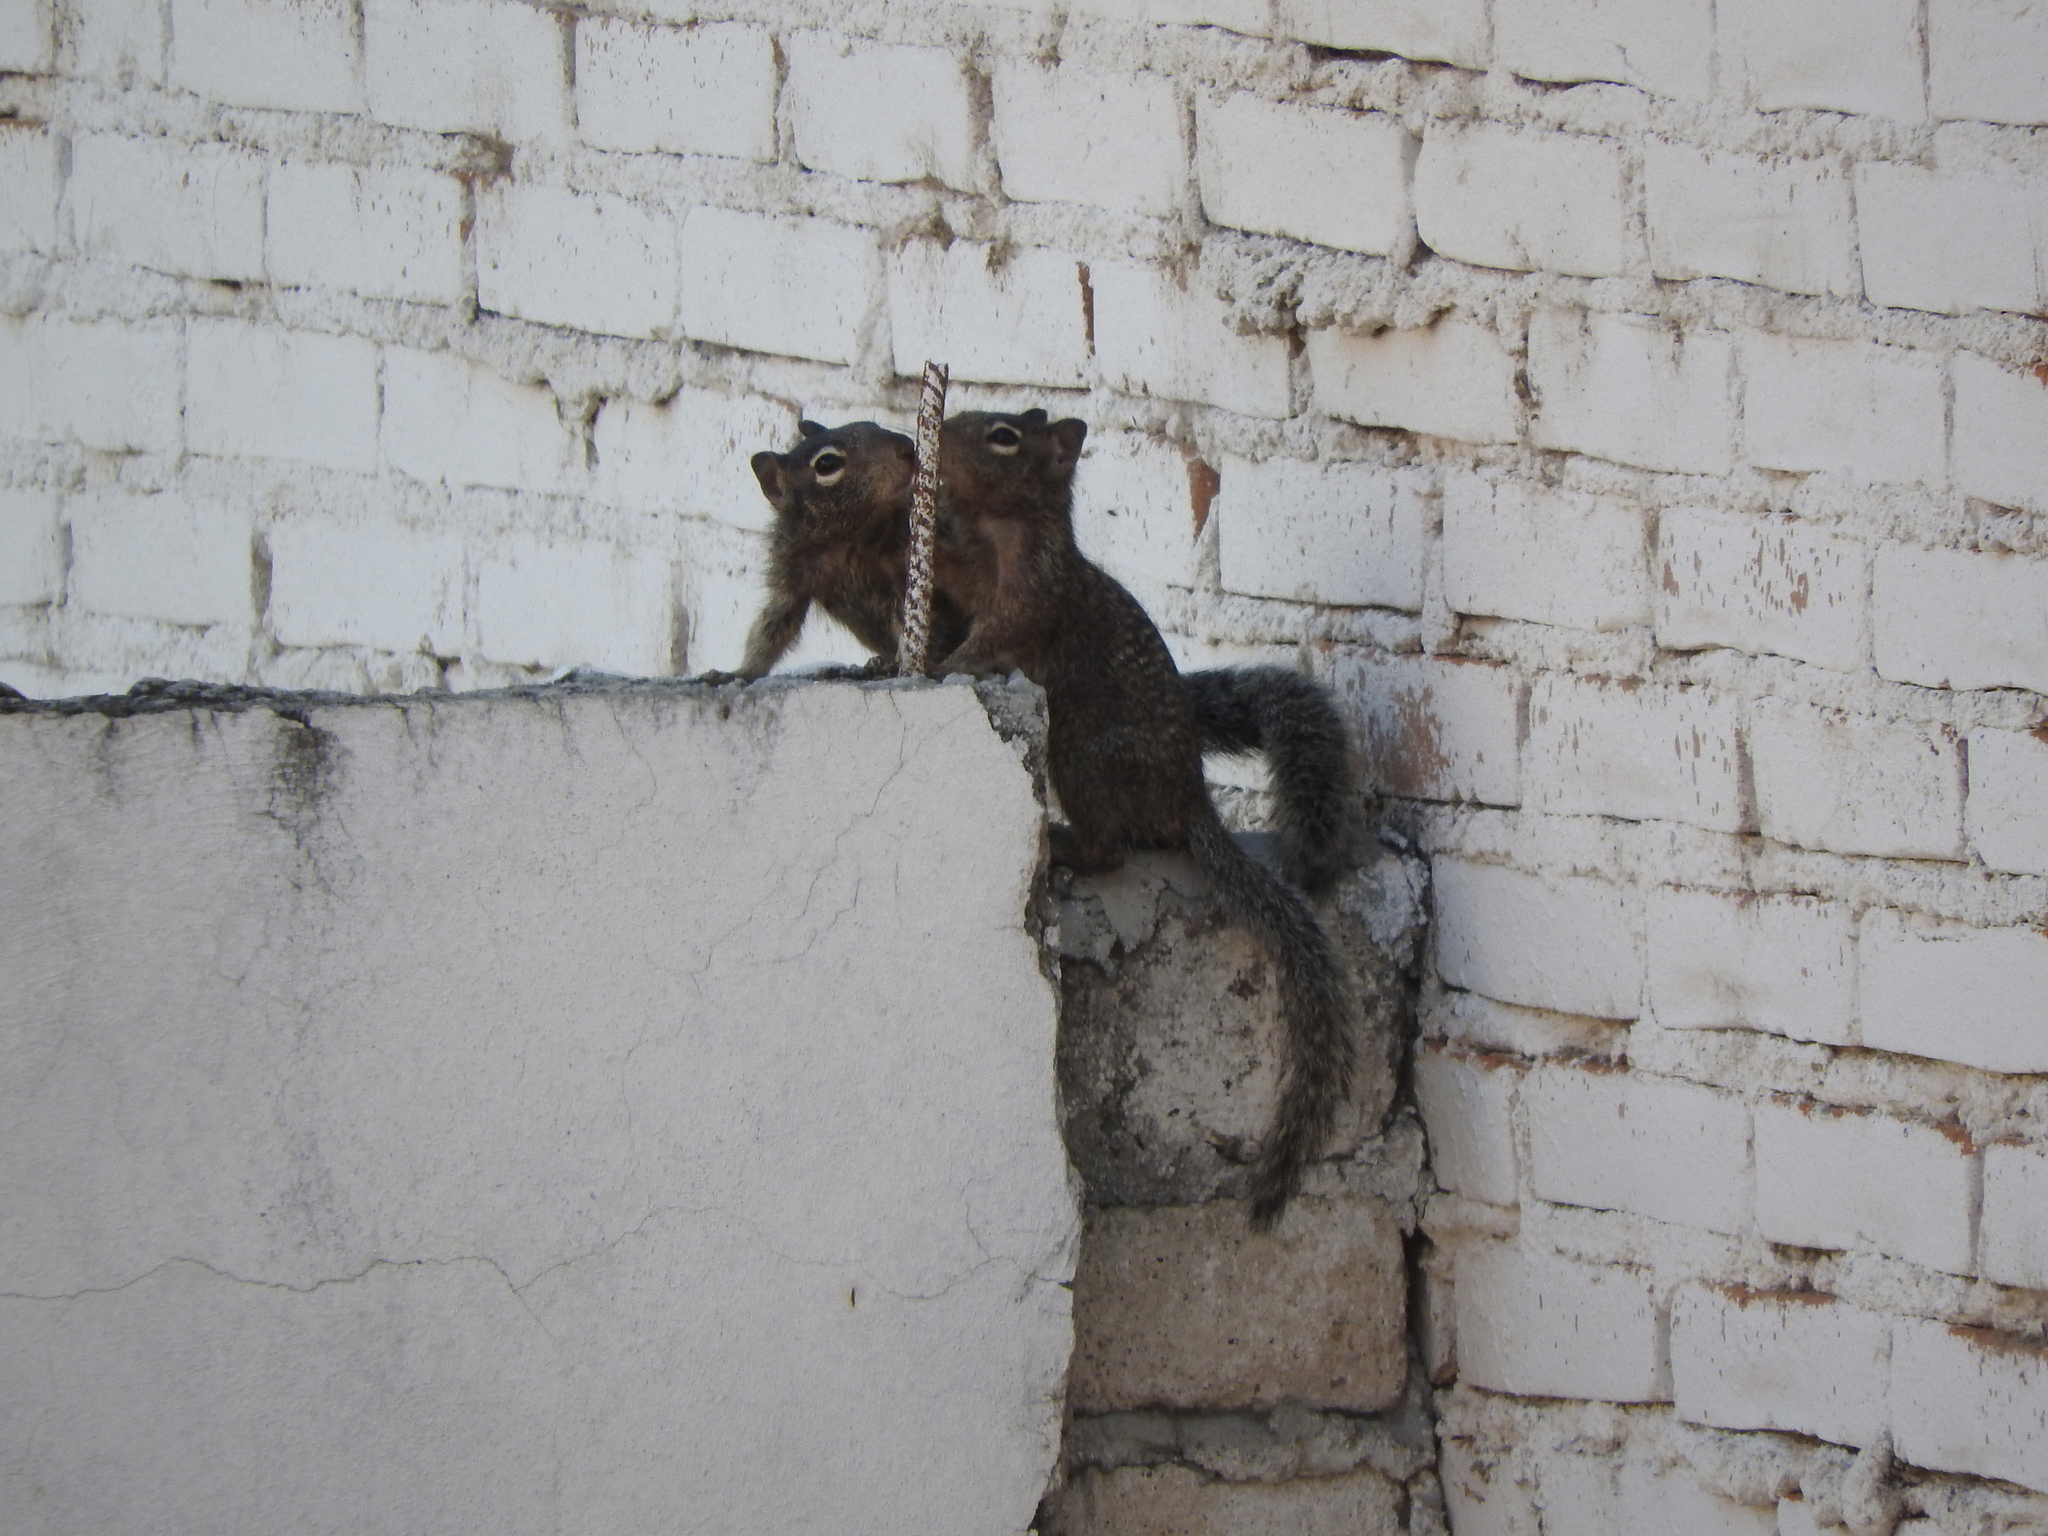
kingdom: Animalia
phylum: Chordata
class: Mammalia
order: Rodentia
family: Sciuridae
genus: Otospermophilus
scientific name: Otospermophilus variegatus
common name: Rock squirrel
